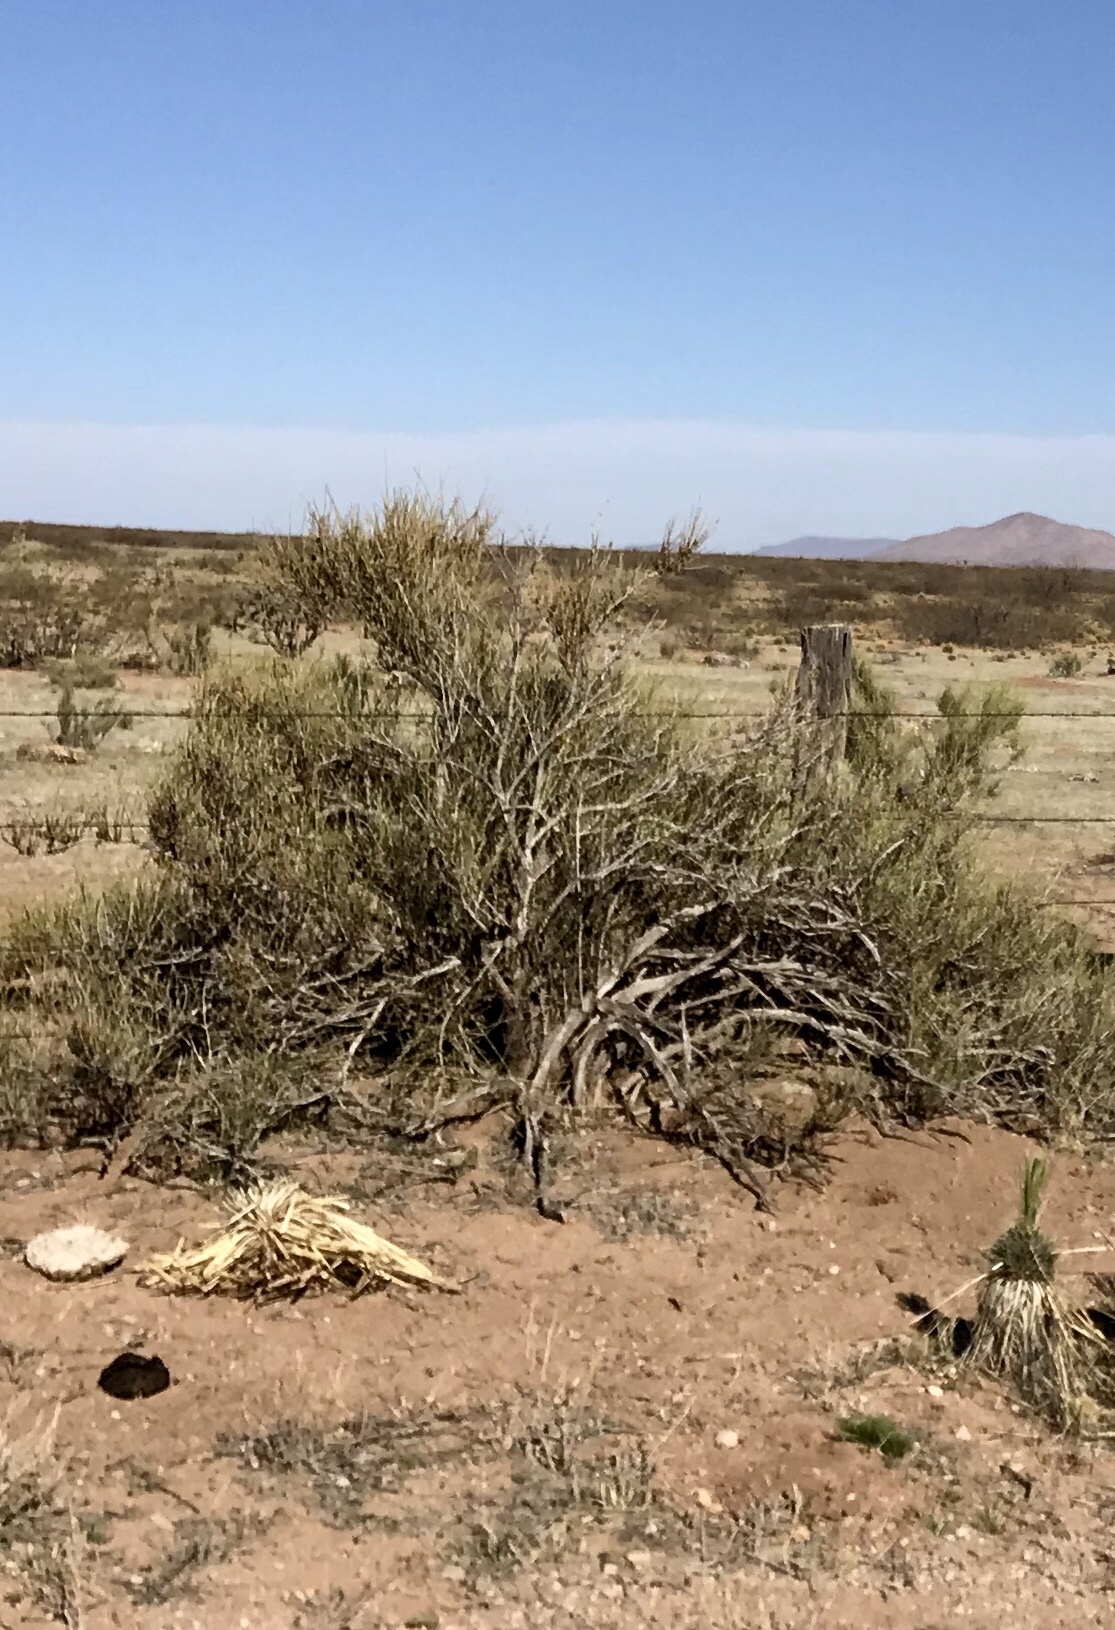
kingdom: Plantae
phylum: Tracheophyta
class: Gnetopsida
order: Ephedrales
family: Ephedraceae
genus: Ephedra
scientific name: Ephedra trifurca
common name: Mexican-tea
